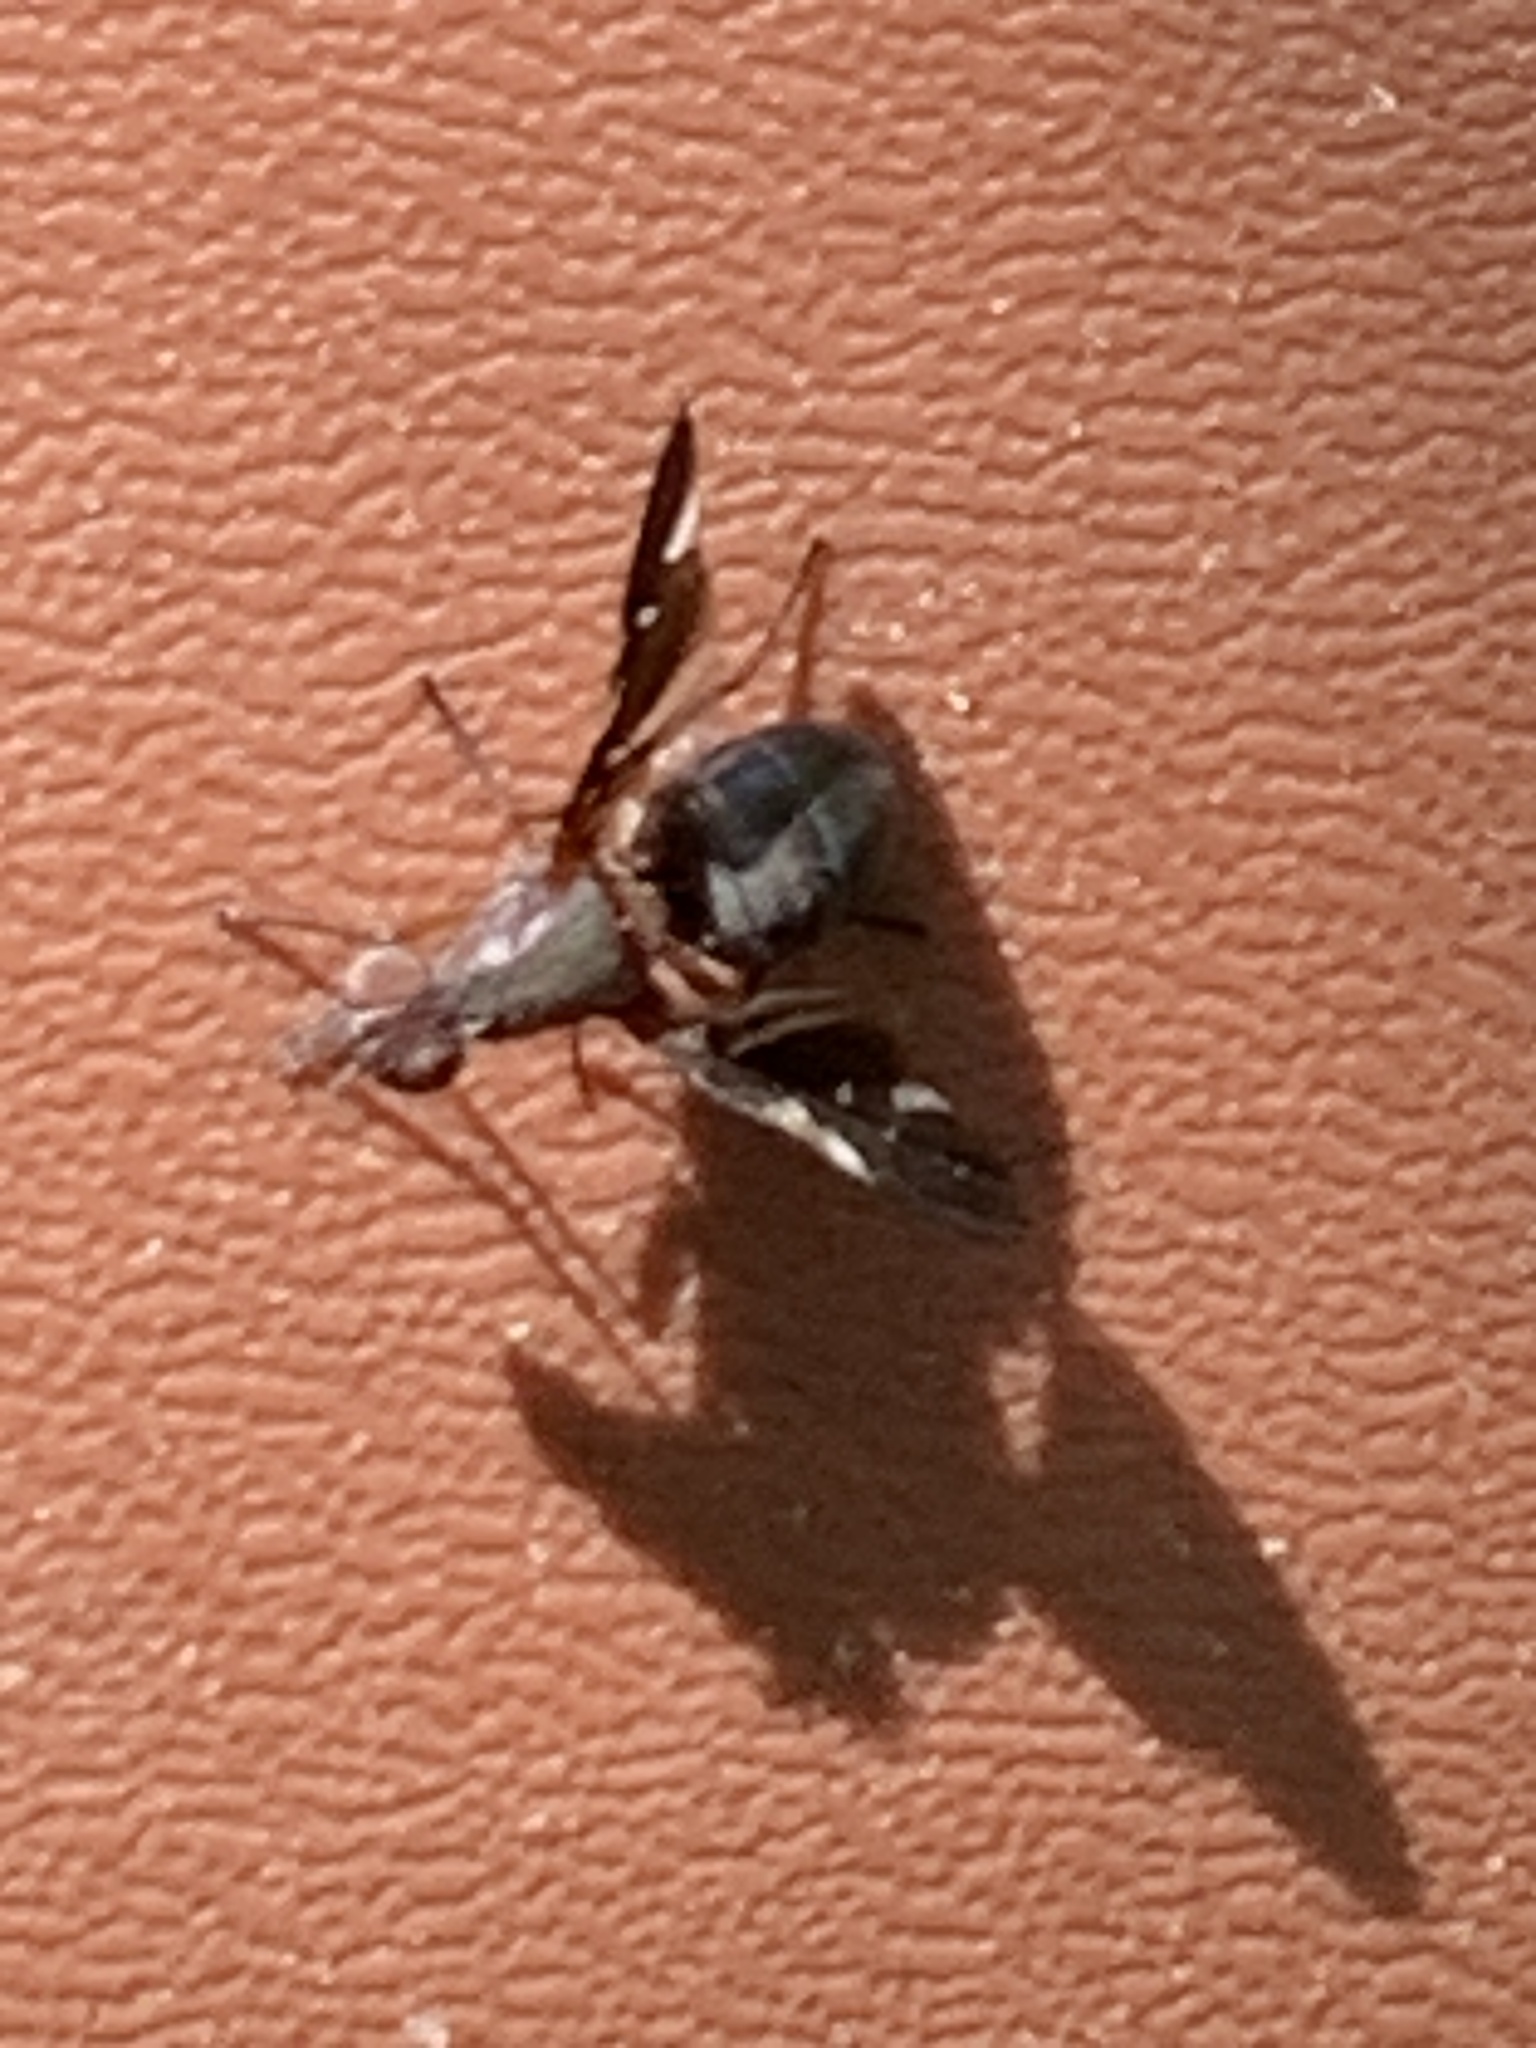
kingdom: Animalia
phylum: Arthropoda
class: Insecta
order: Diptera
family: Ulidiidae
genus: Delphinia
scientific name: Delphinia picta
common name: Common picture-winged fly
